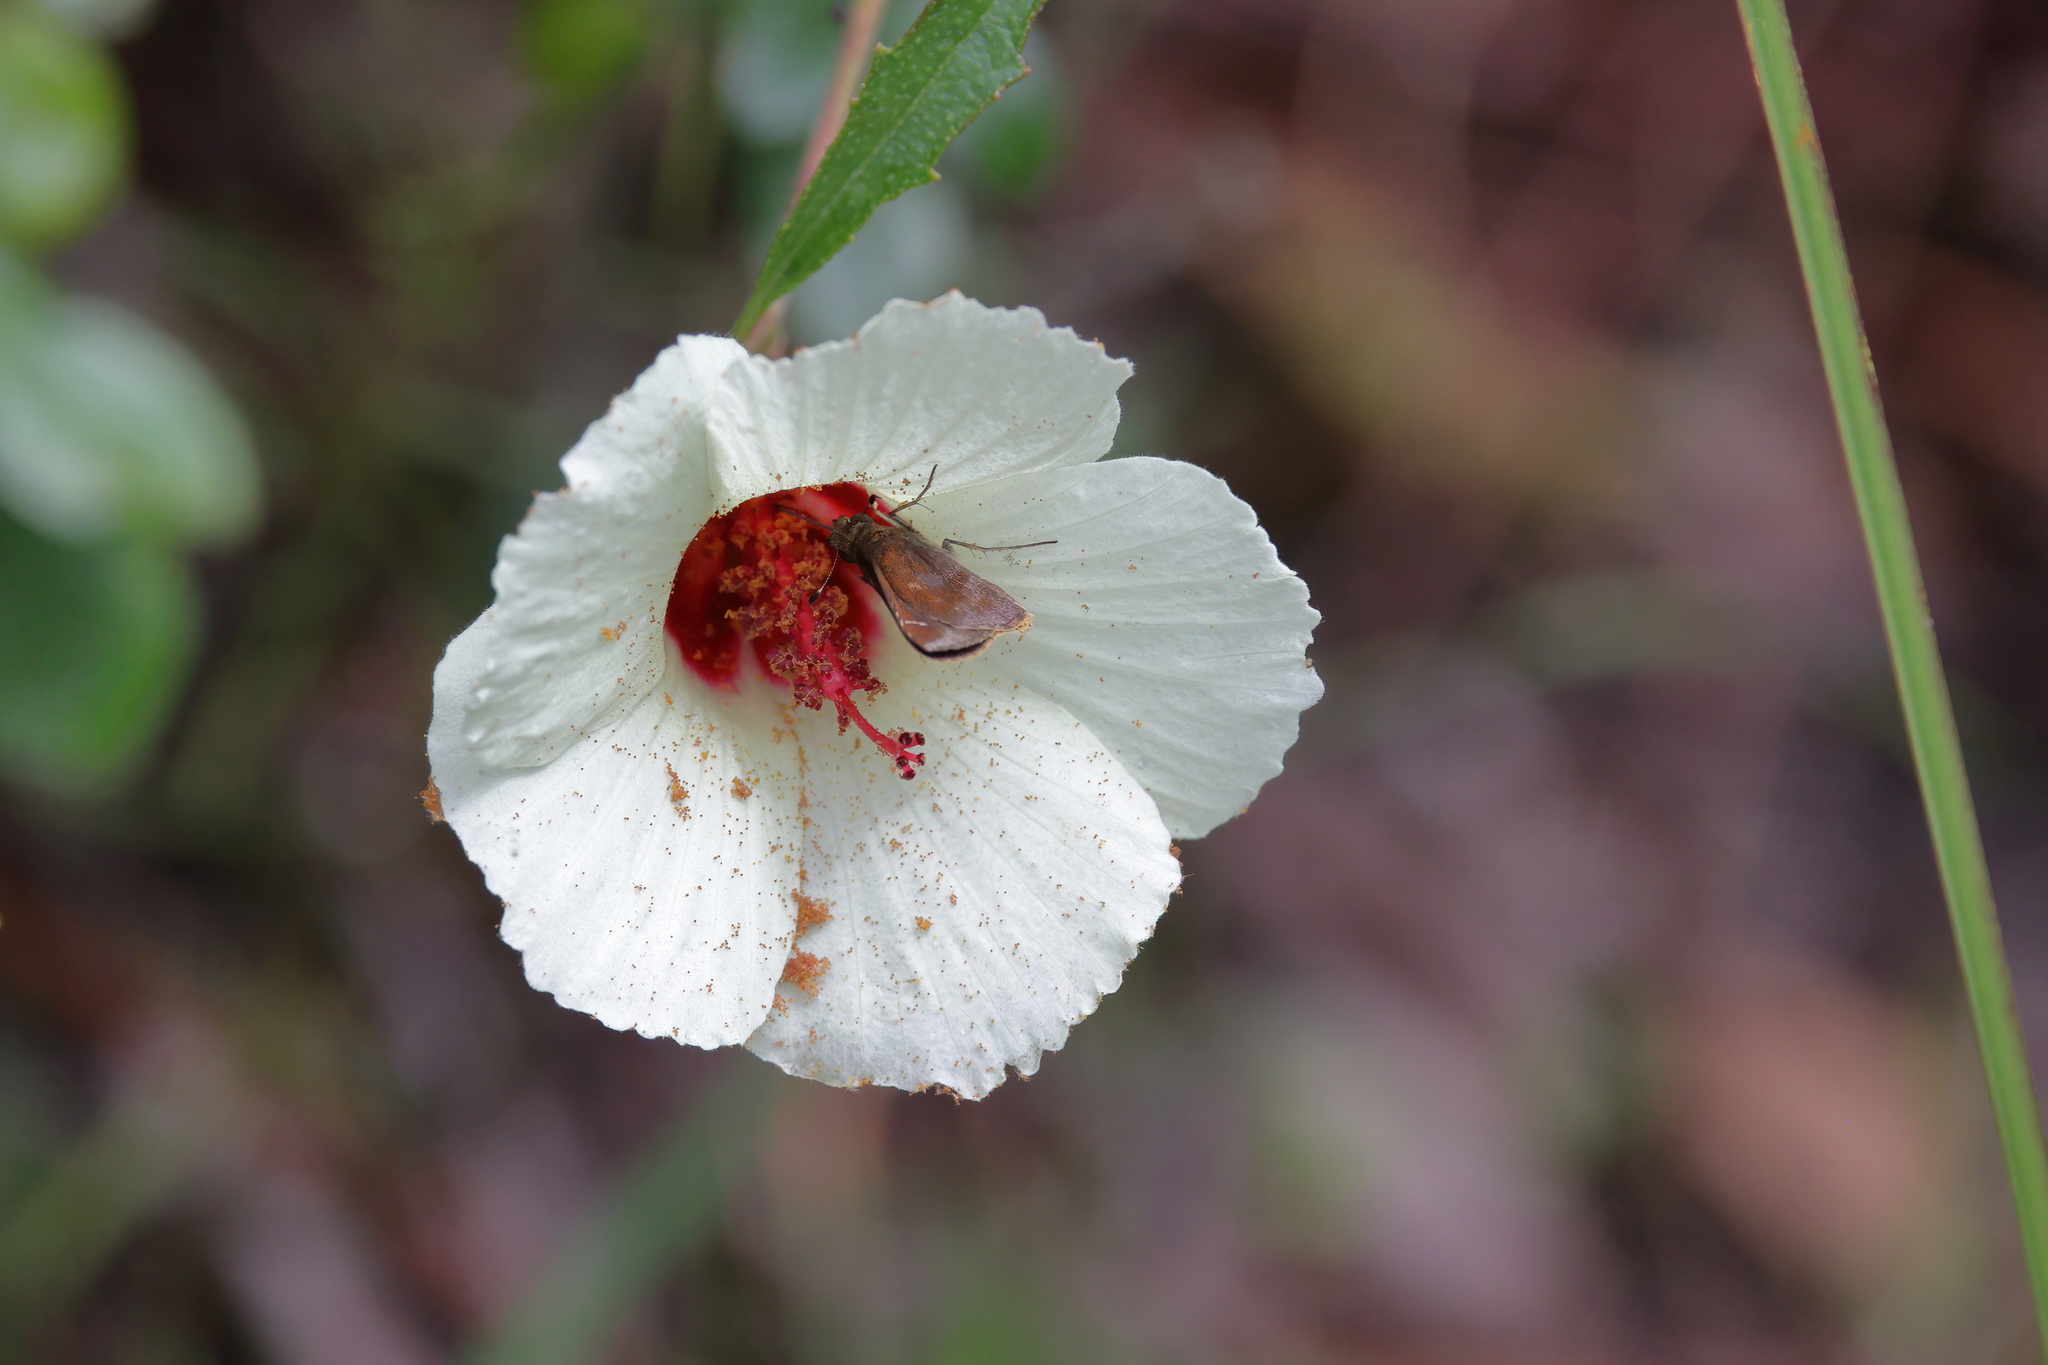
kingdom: Plantae
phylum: Tracheophyta
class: Magnoliopsida
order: Malvales
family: Malvaceae
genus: Hibiscus
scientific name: Hibiscus aculeatus
